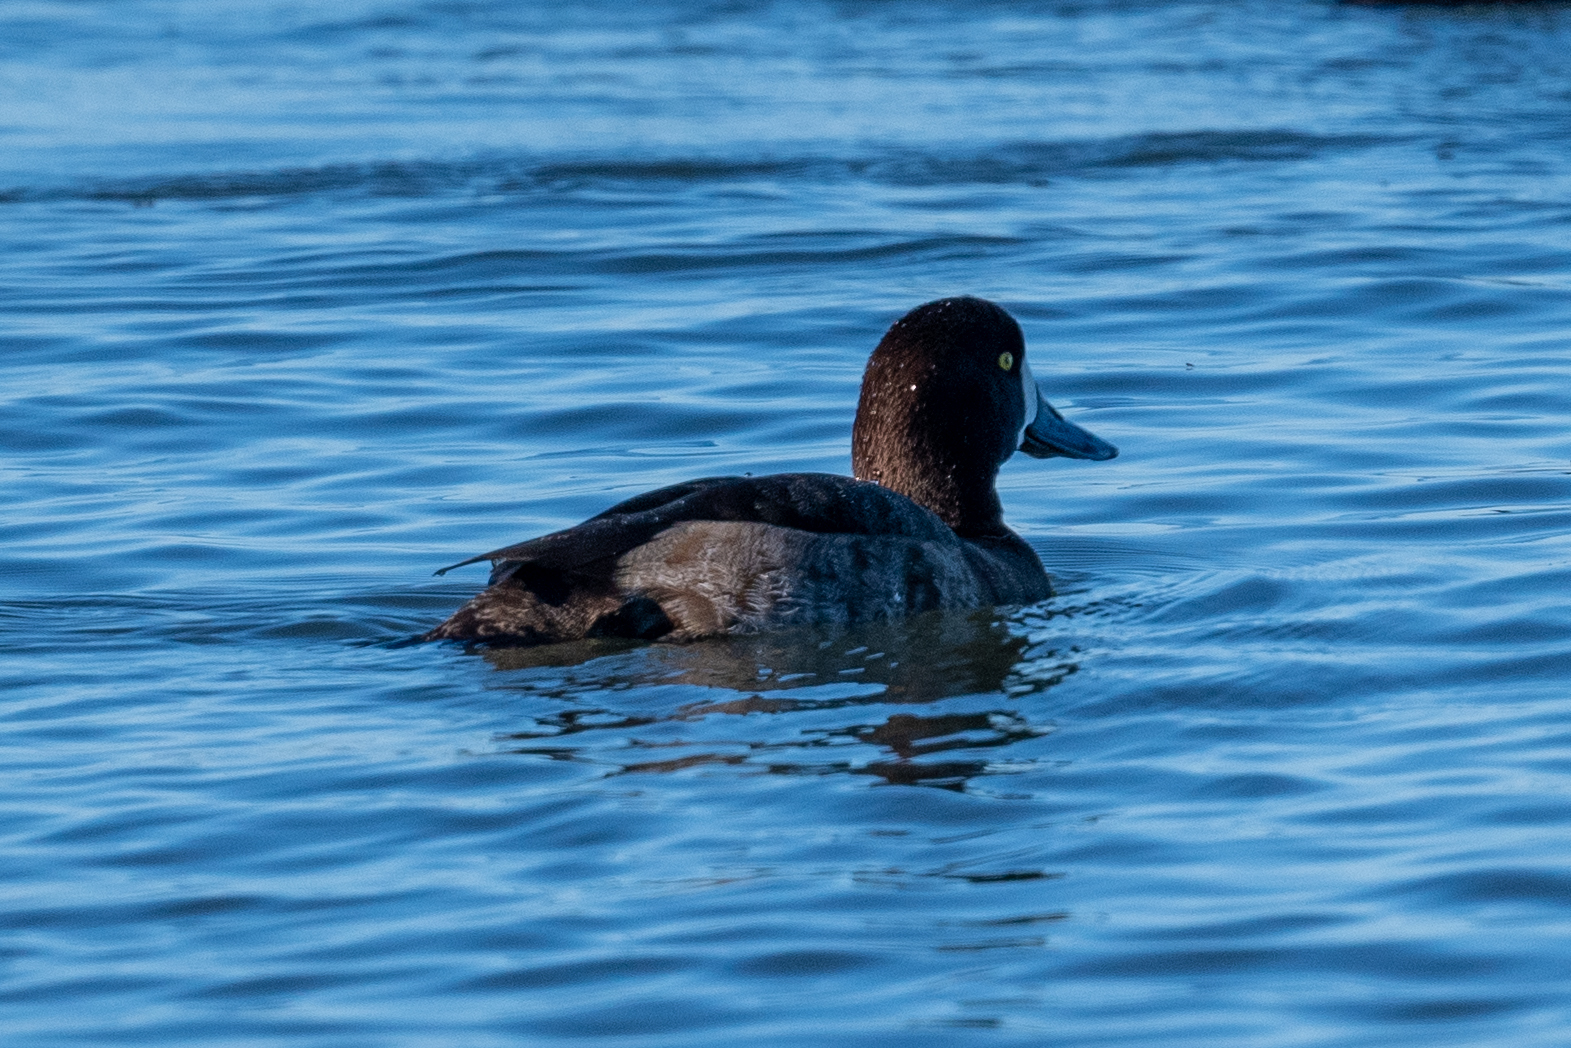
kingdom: Animalia
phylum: Chordata
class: Aves
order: Anseriformes
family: Anatidae
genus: Aythya
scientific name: Aythya marila
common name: Greater scaup
